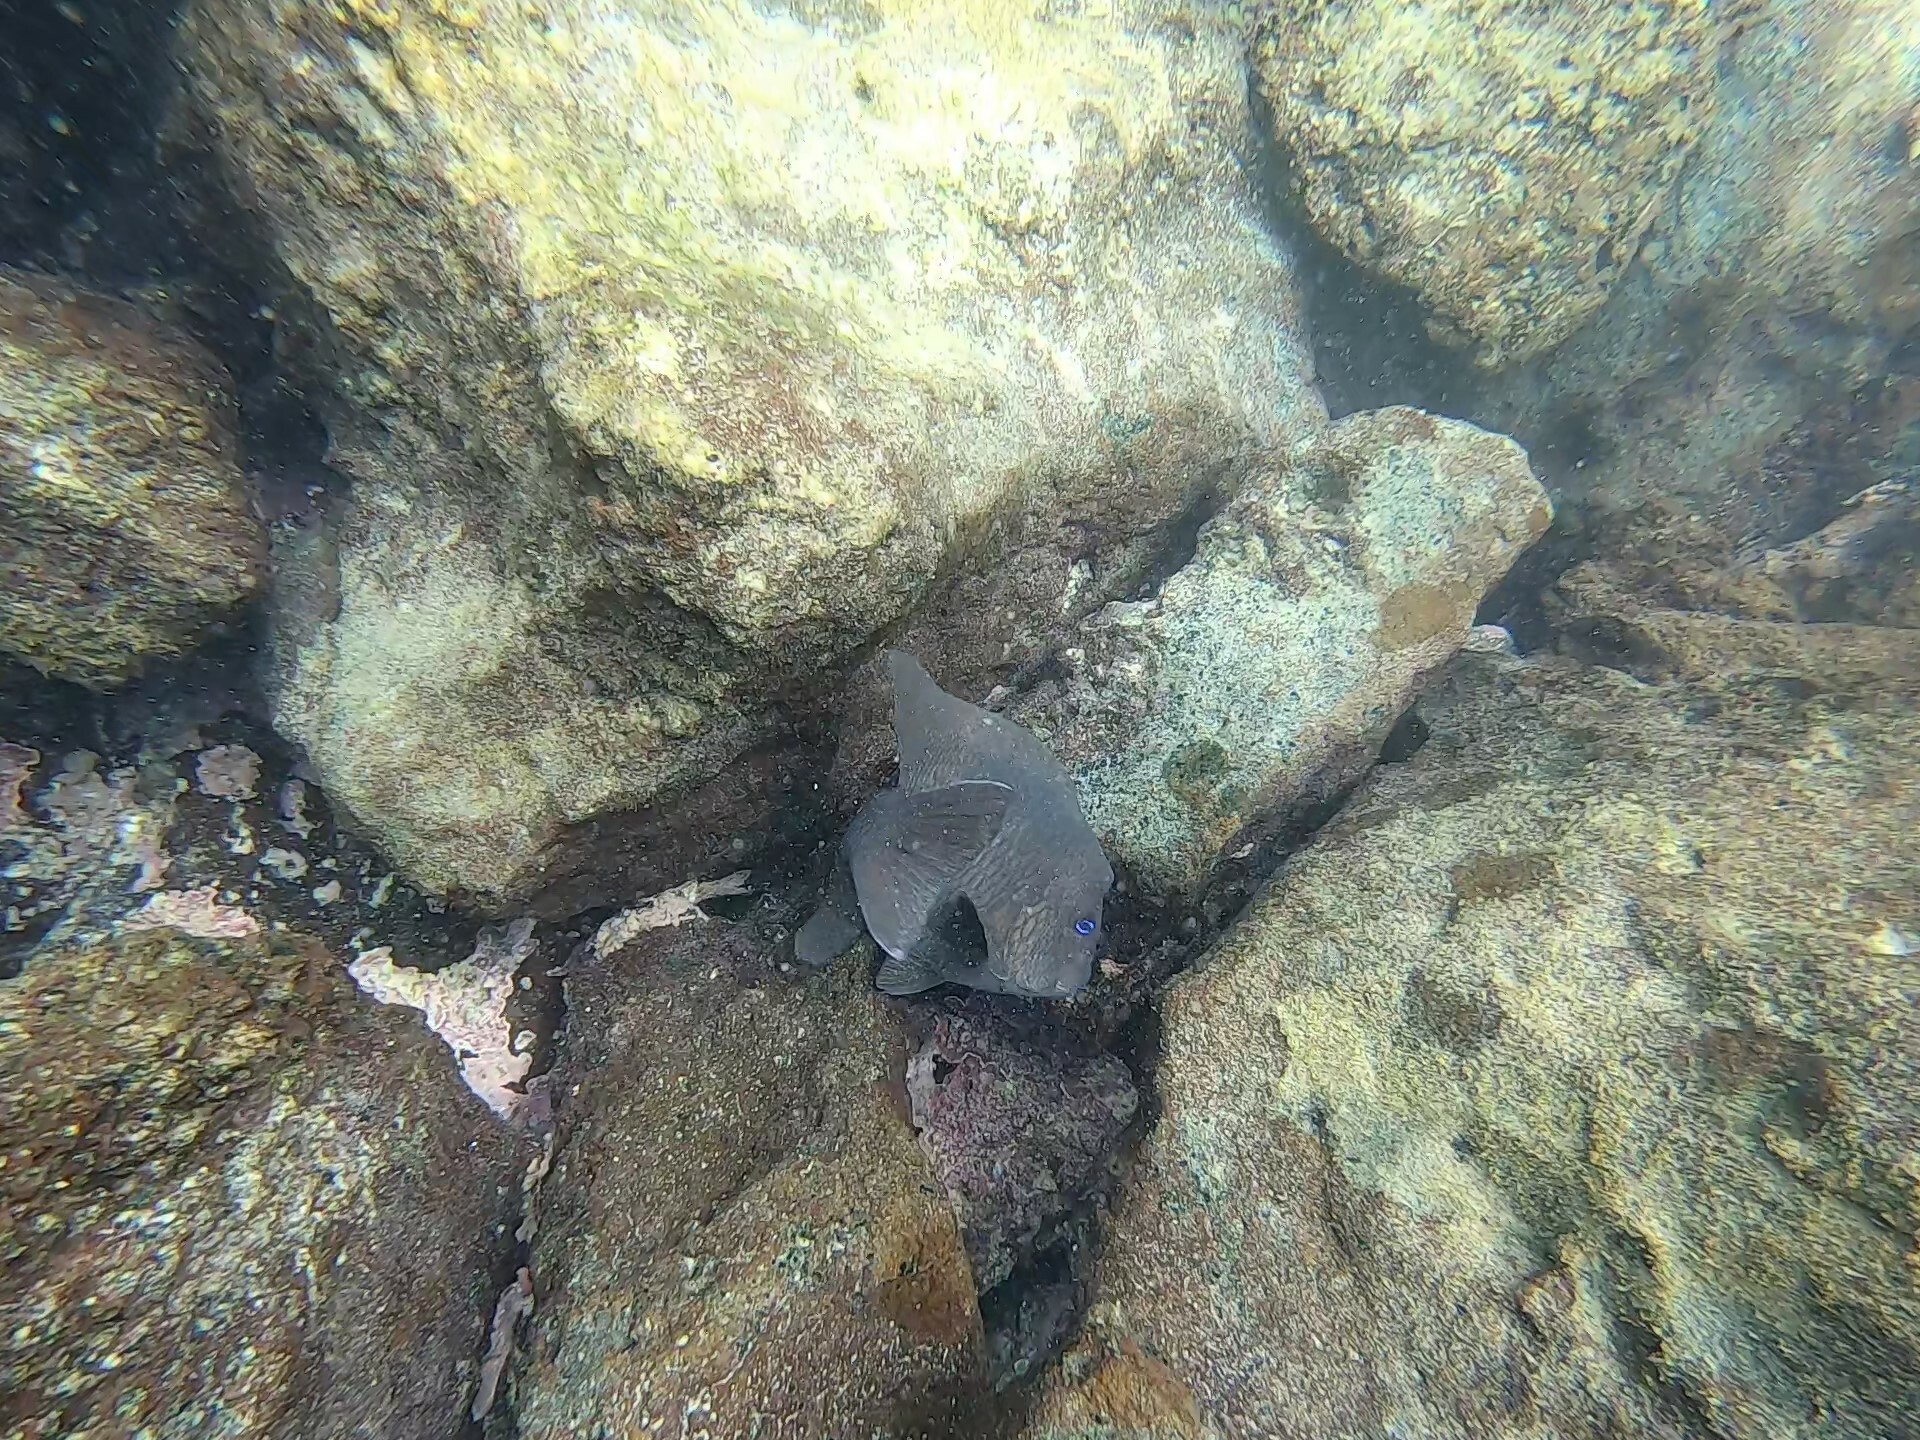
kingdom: Animalia
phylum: Chordata
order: Perciformes
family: Pomacentridae
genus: Microspathodon
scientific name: Microspathodon bairdii
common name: Bumphead damselfish
